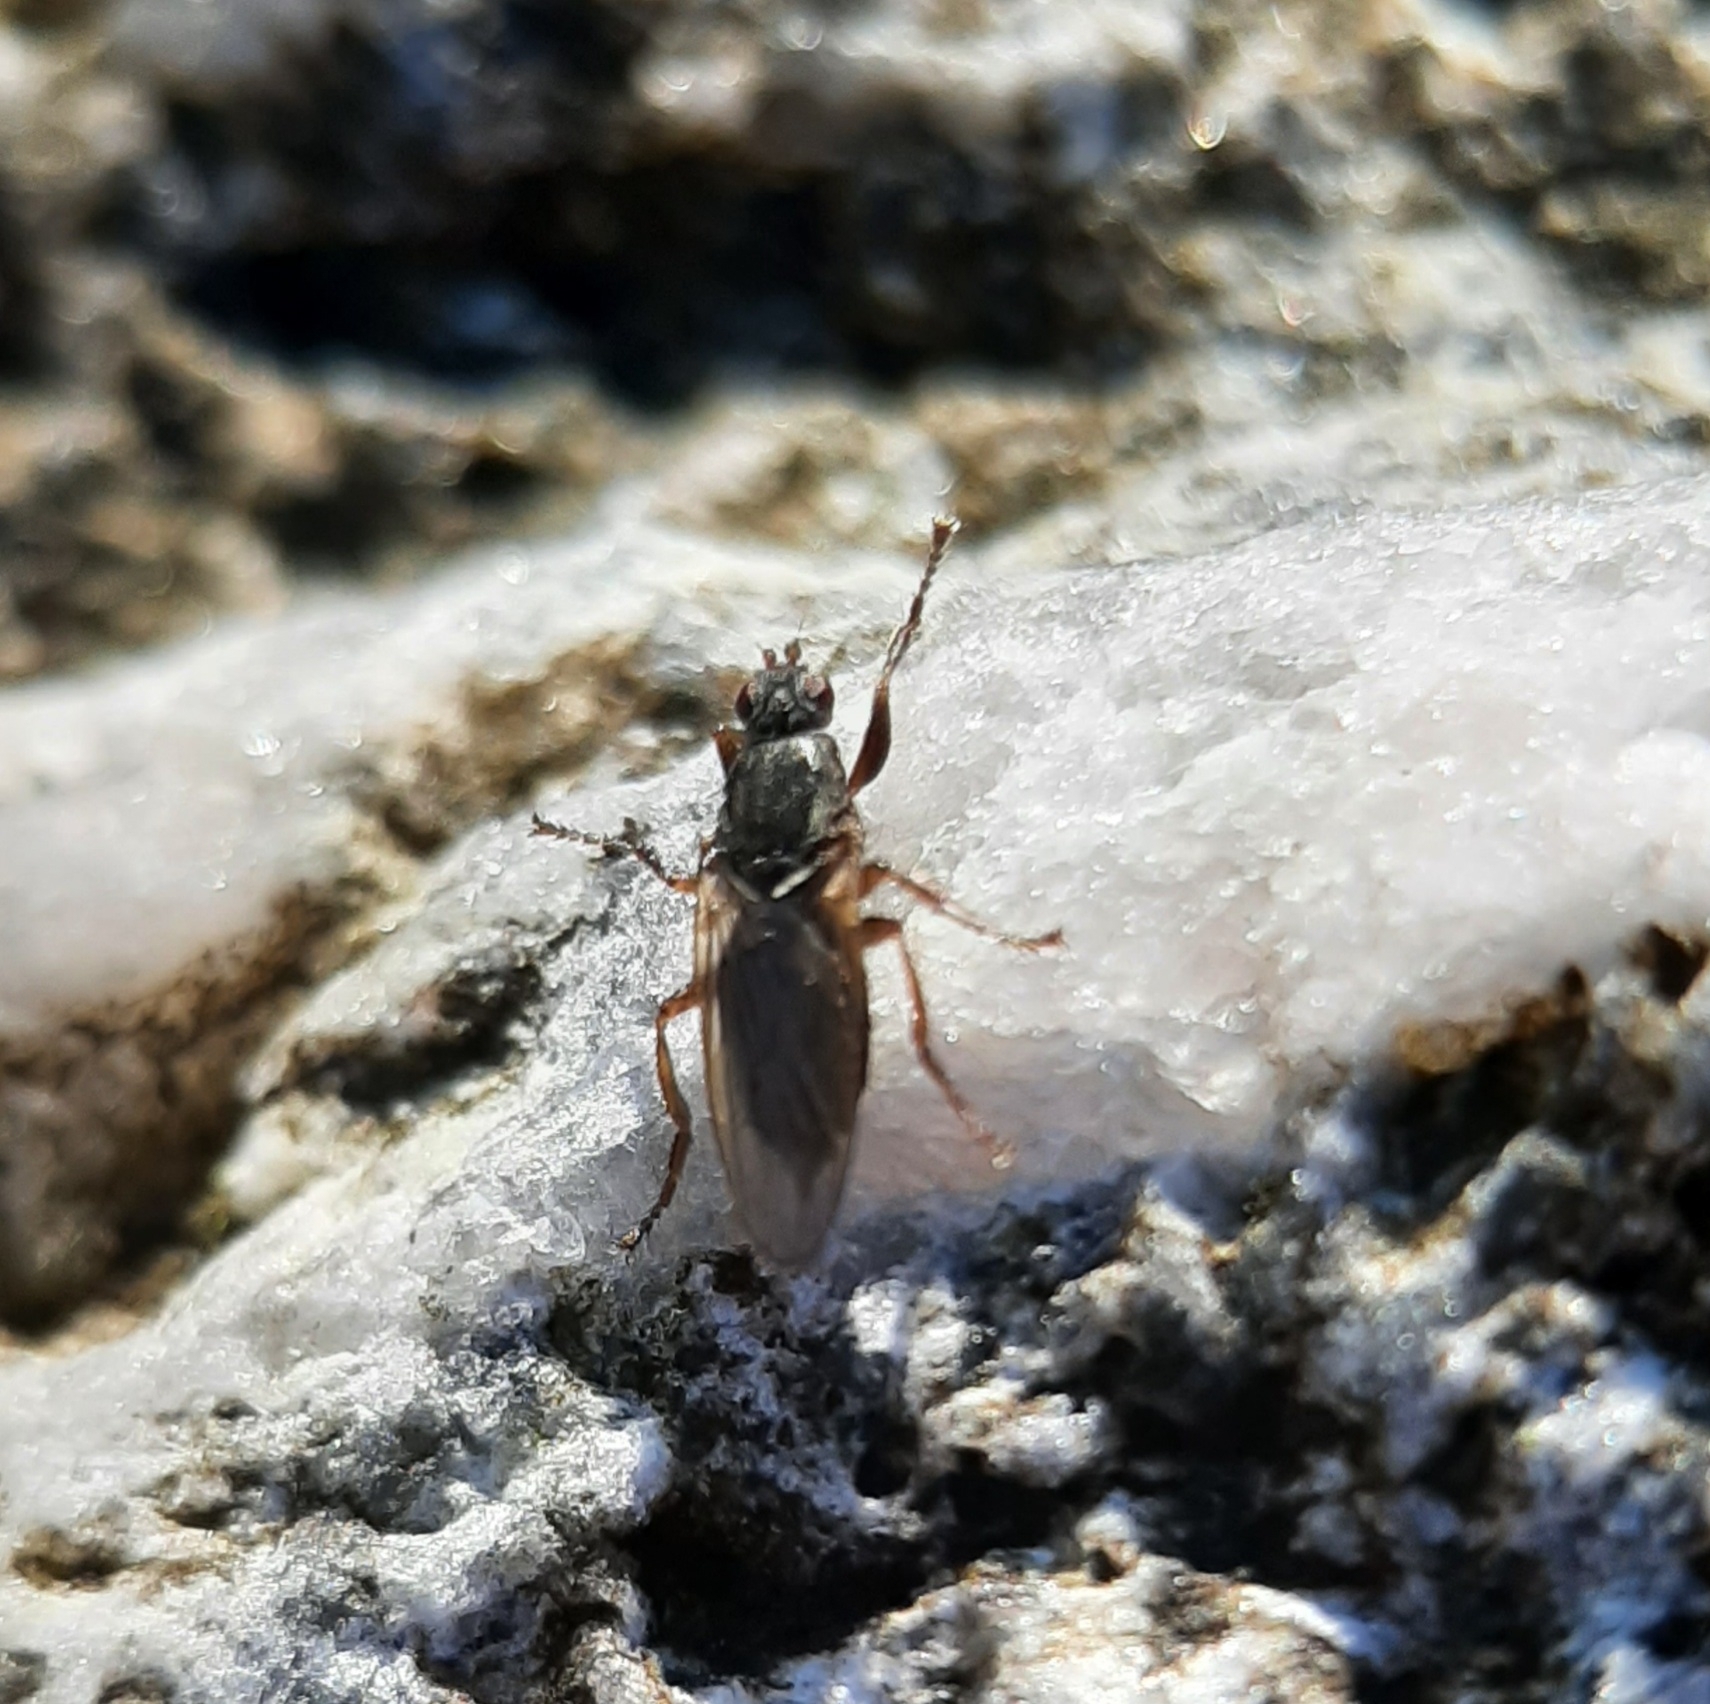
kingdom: Animalia
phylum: Arthropoda
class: Insecta
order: Diptera
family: Coelopidae
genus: Coelopa
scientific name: Coelopa frigida
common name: Kelp fly
